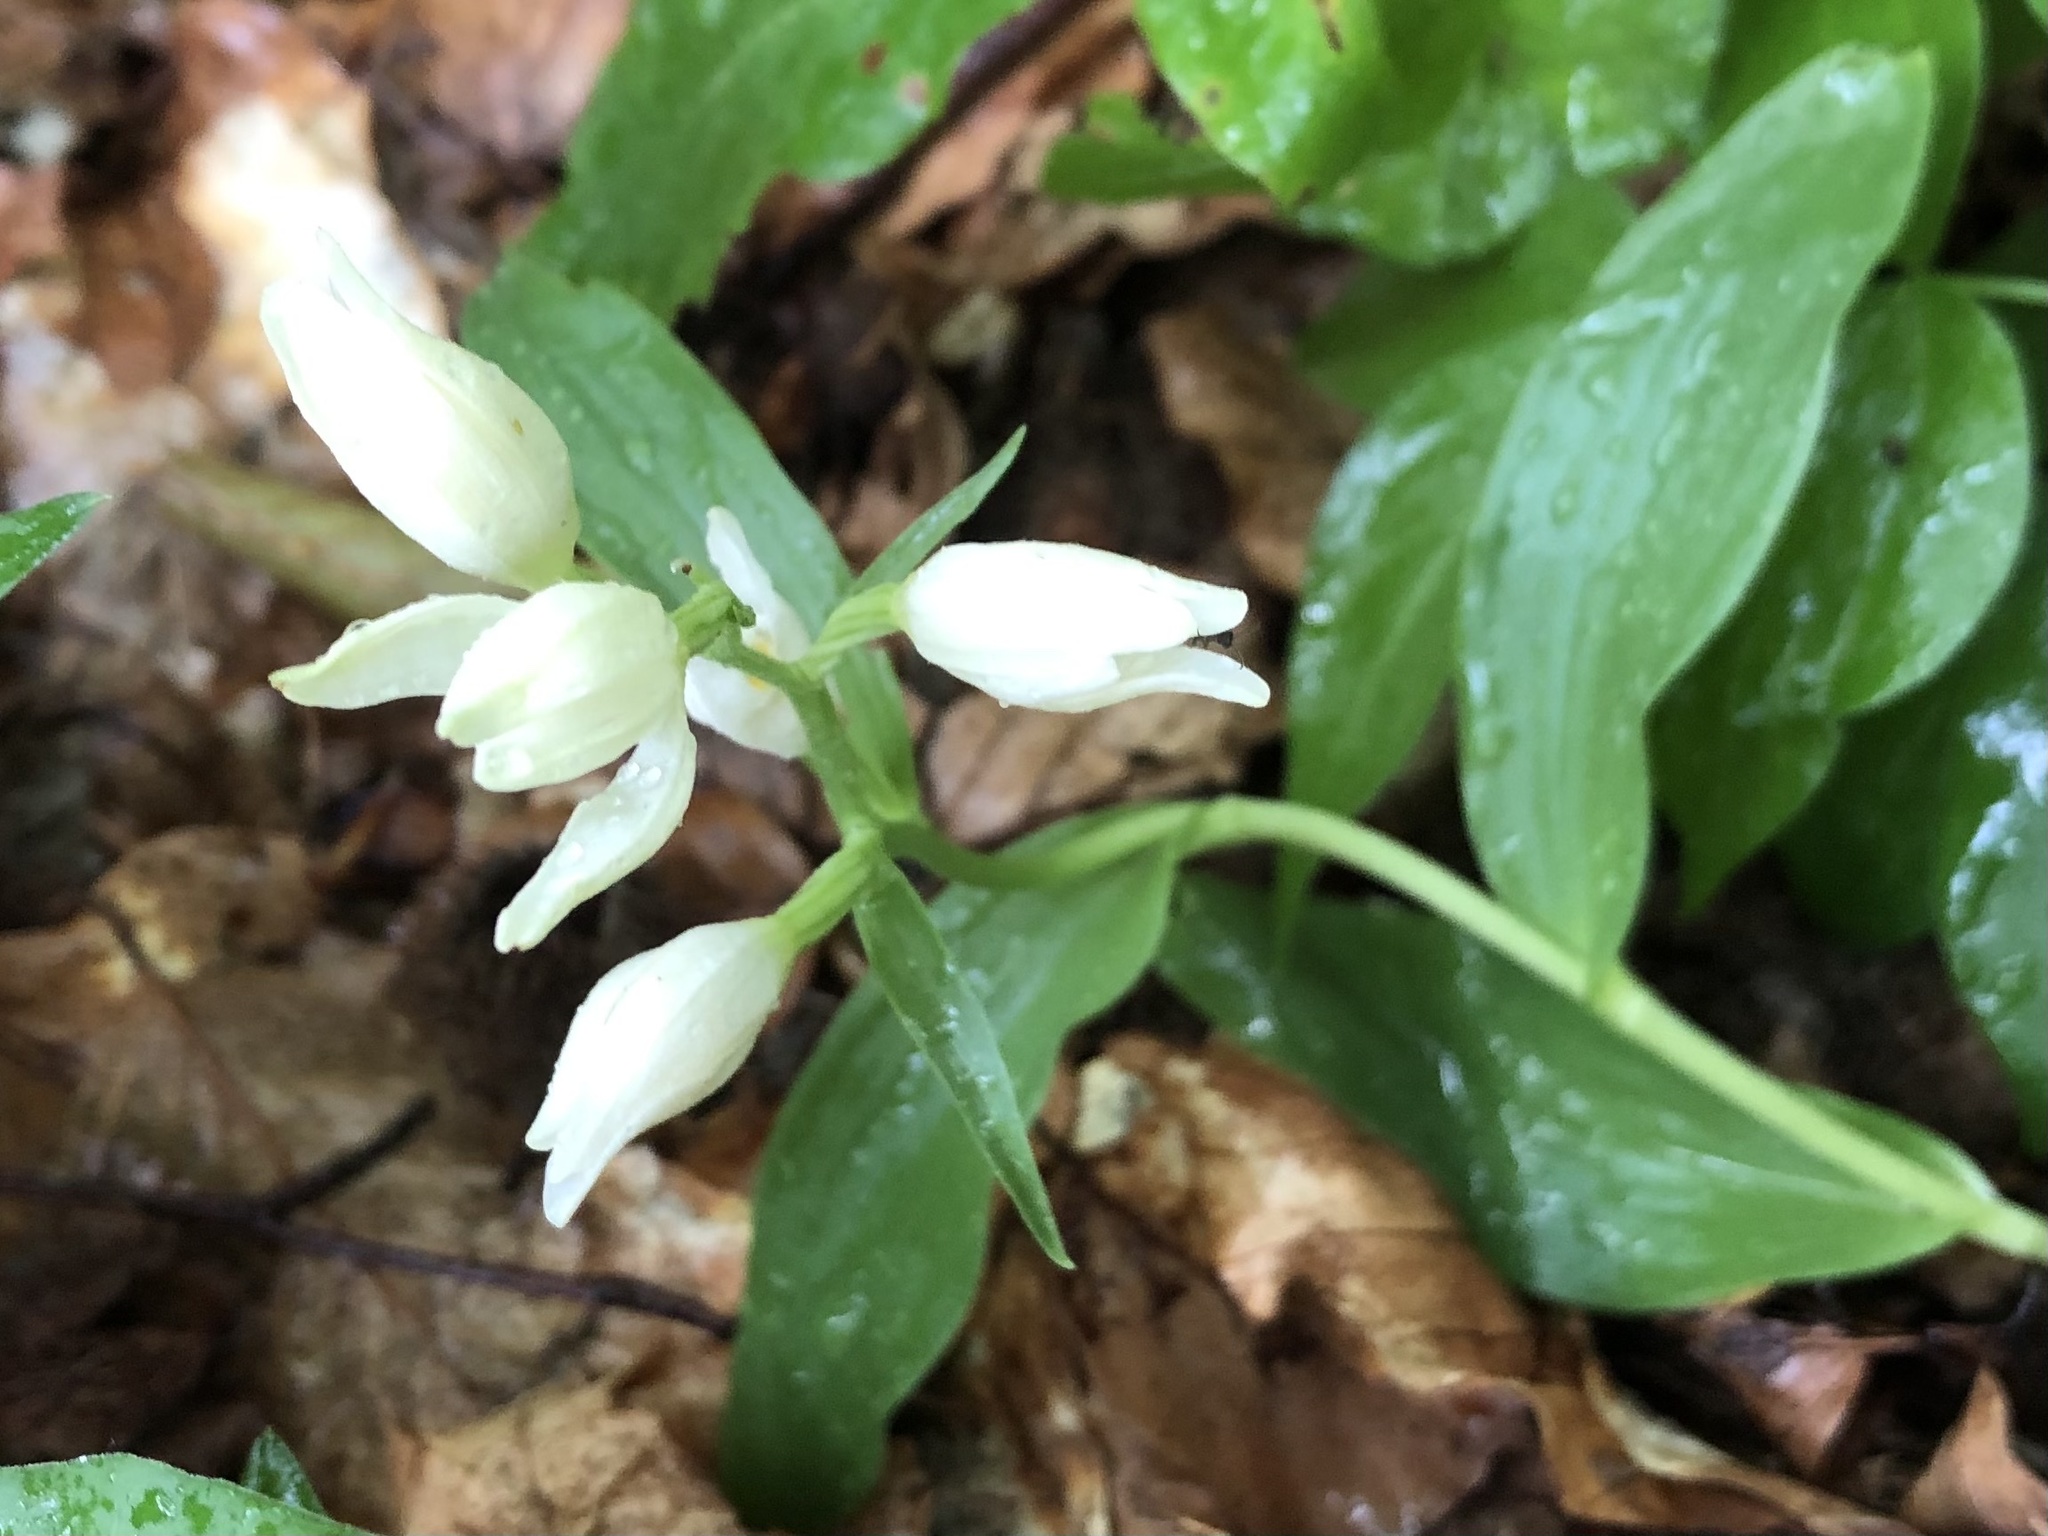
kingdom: Plantae
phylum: Tracheophyta
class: Liliopsida
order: Asparagales
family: Orchidaceae
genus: Cephalanthera
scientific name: Cephalanthera damasonium
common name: White helleborine
